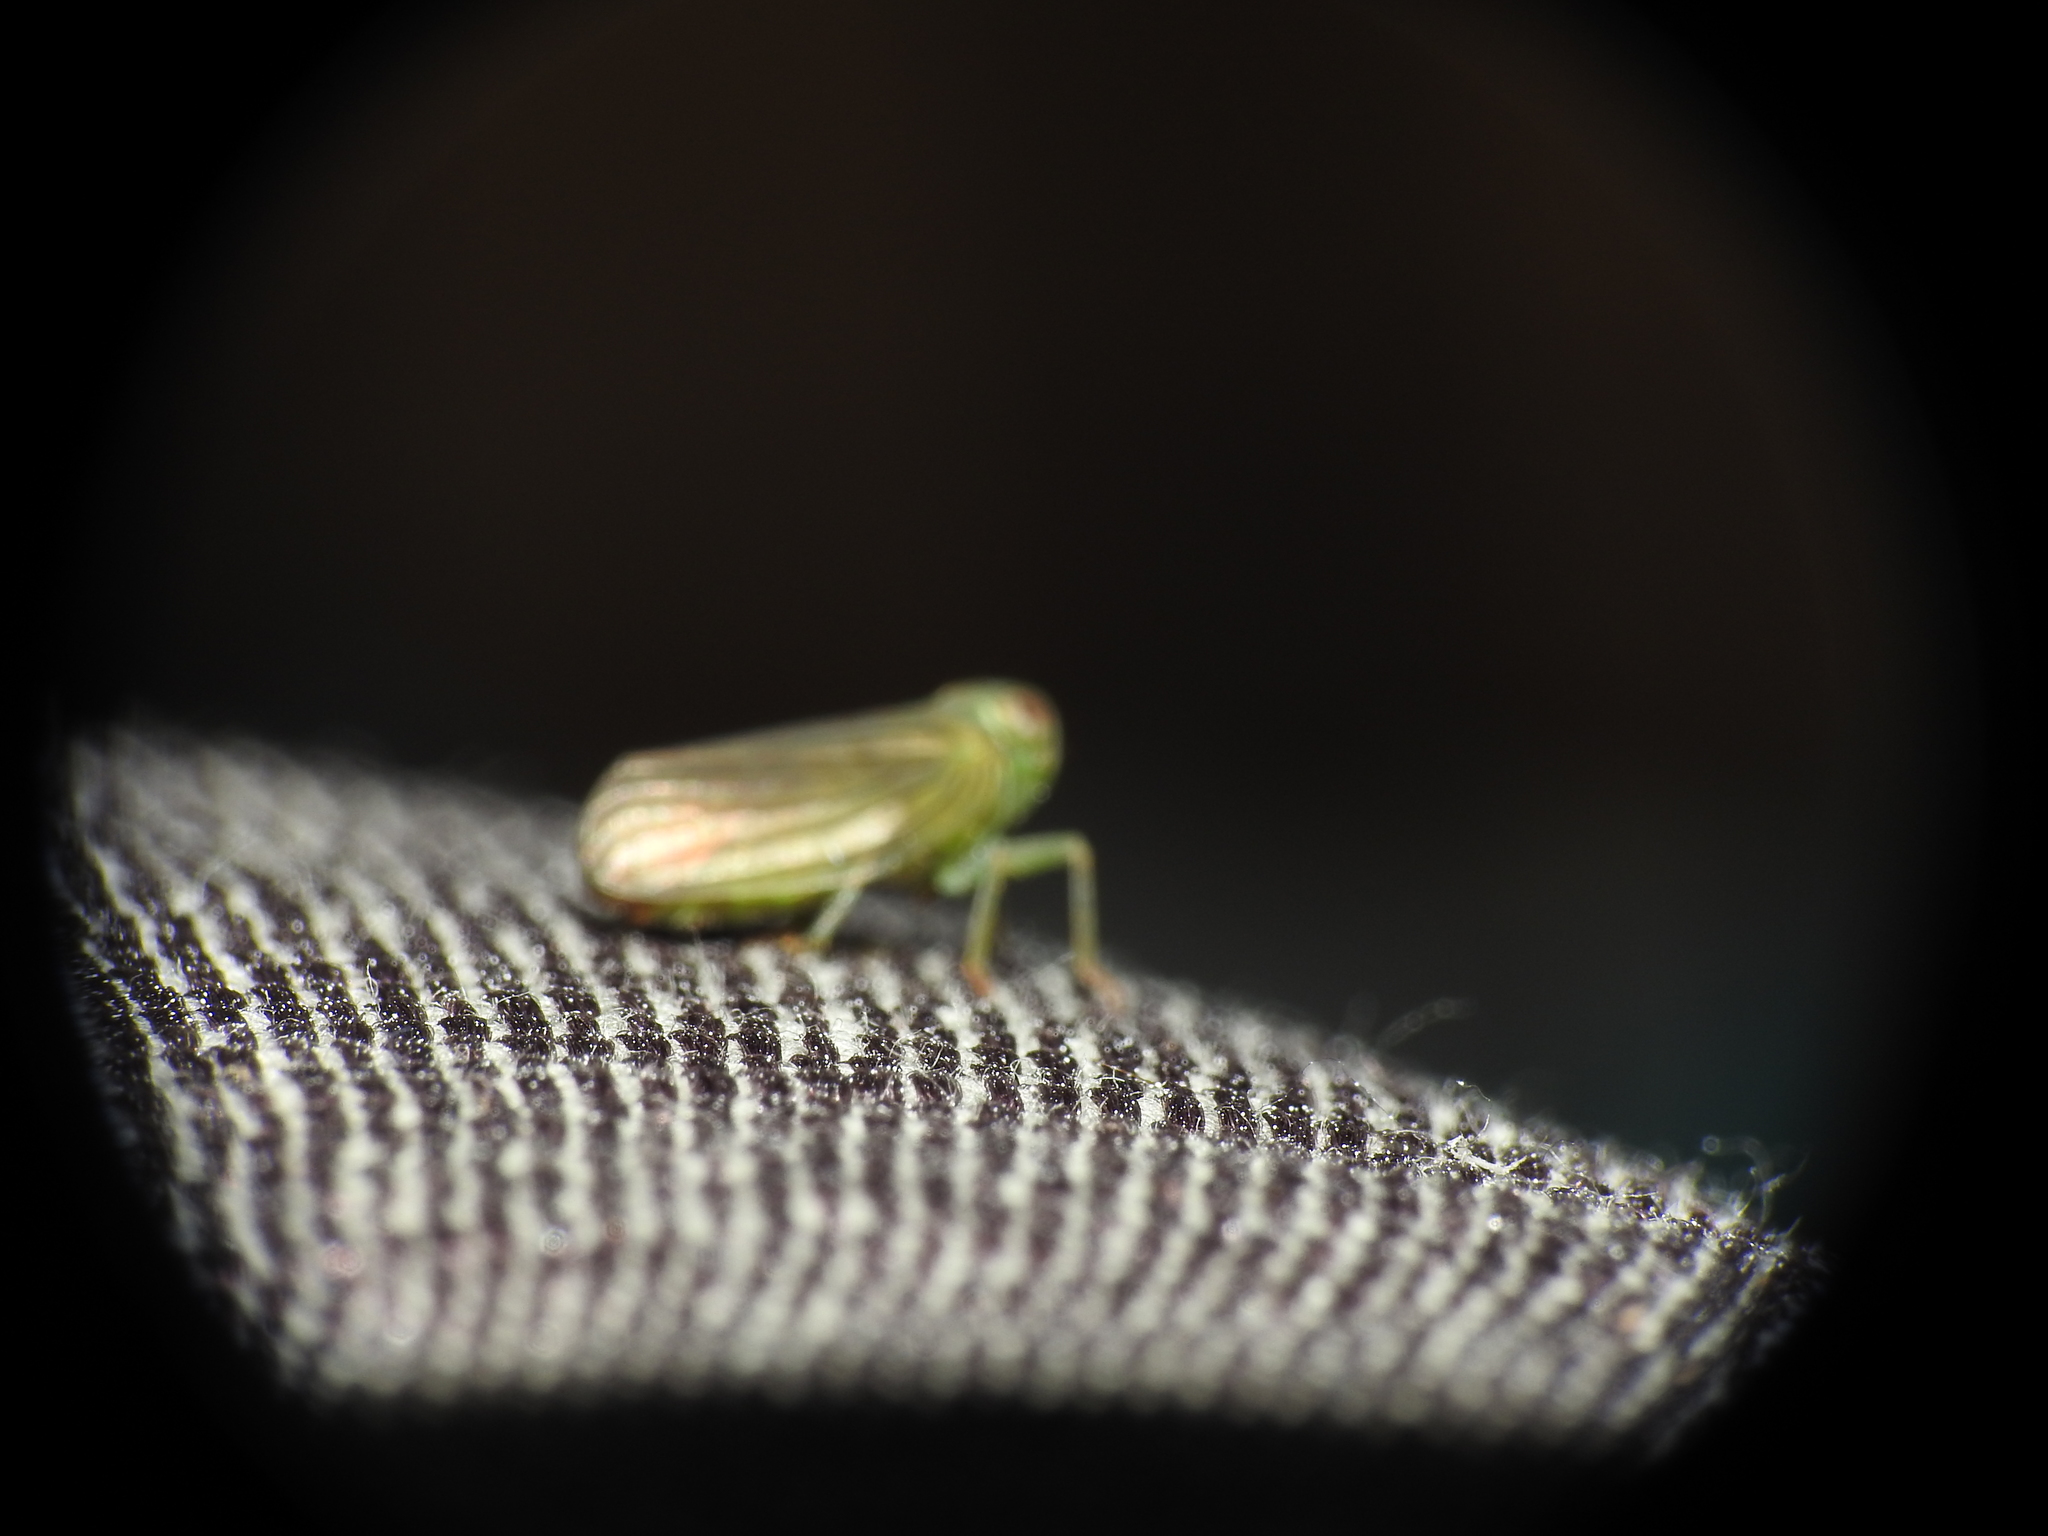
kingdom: Animalia
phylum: Arthropoda
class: Insecta
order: Hemiptera
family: Issidae
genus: Aplos
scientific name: Aplos simplex
